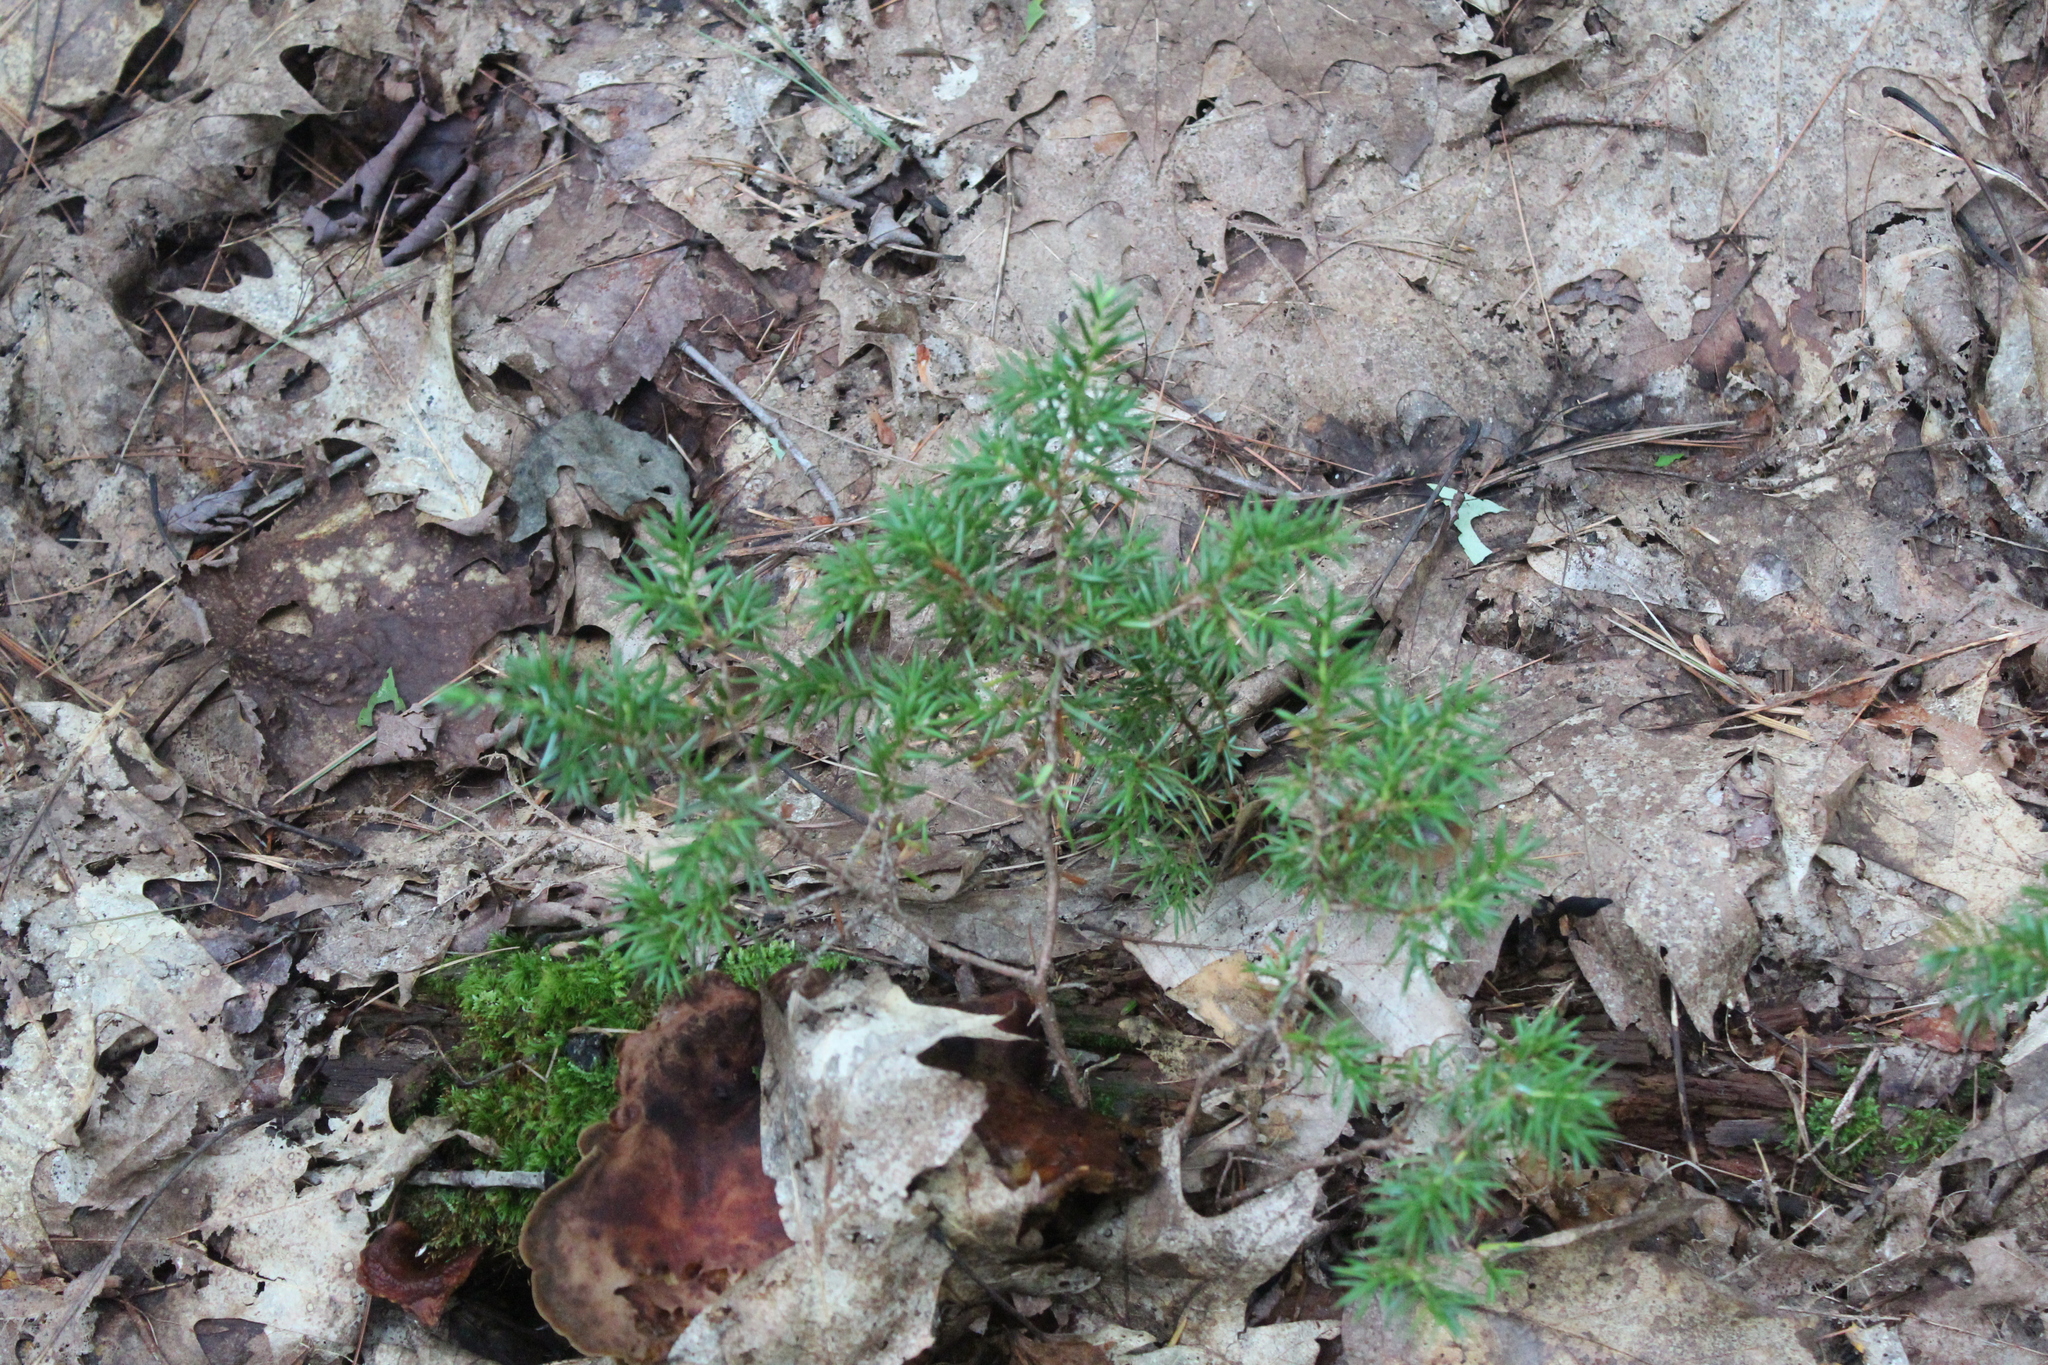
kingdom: Plantae
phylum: Tracheophyta
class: Pinopsida
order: Pinales
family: Cupressaceae
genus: Juniperus
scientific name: Juniperus communis
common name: Common juniper
